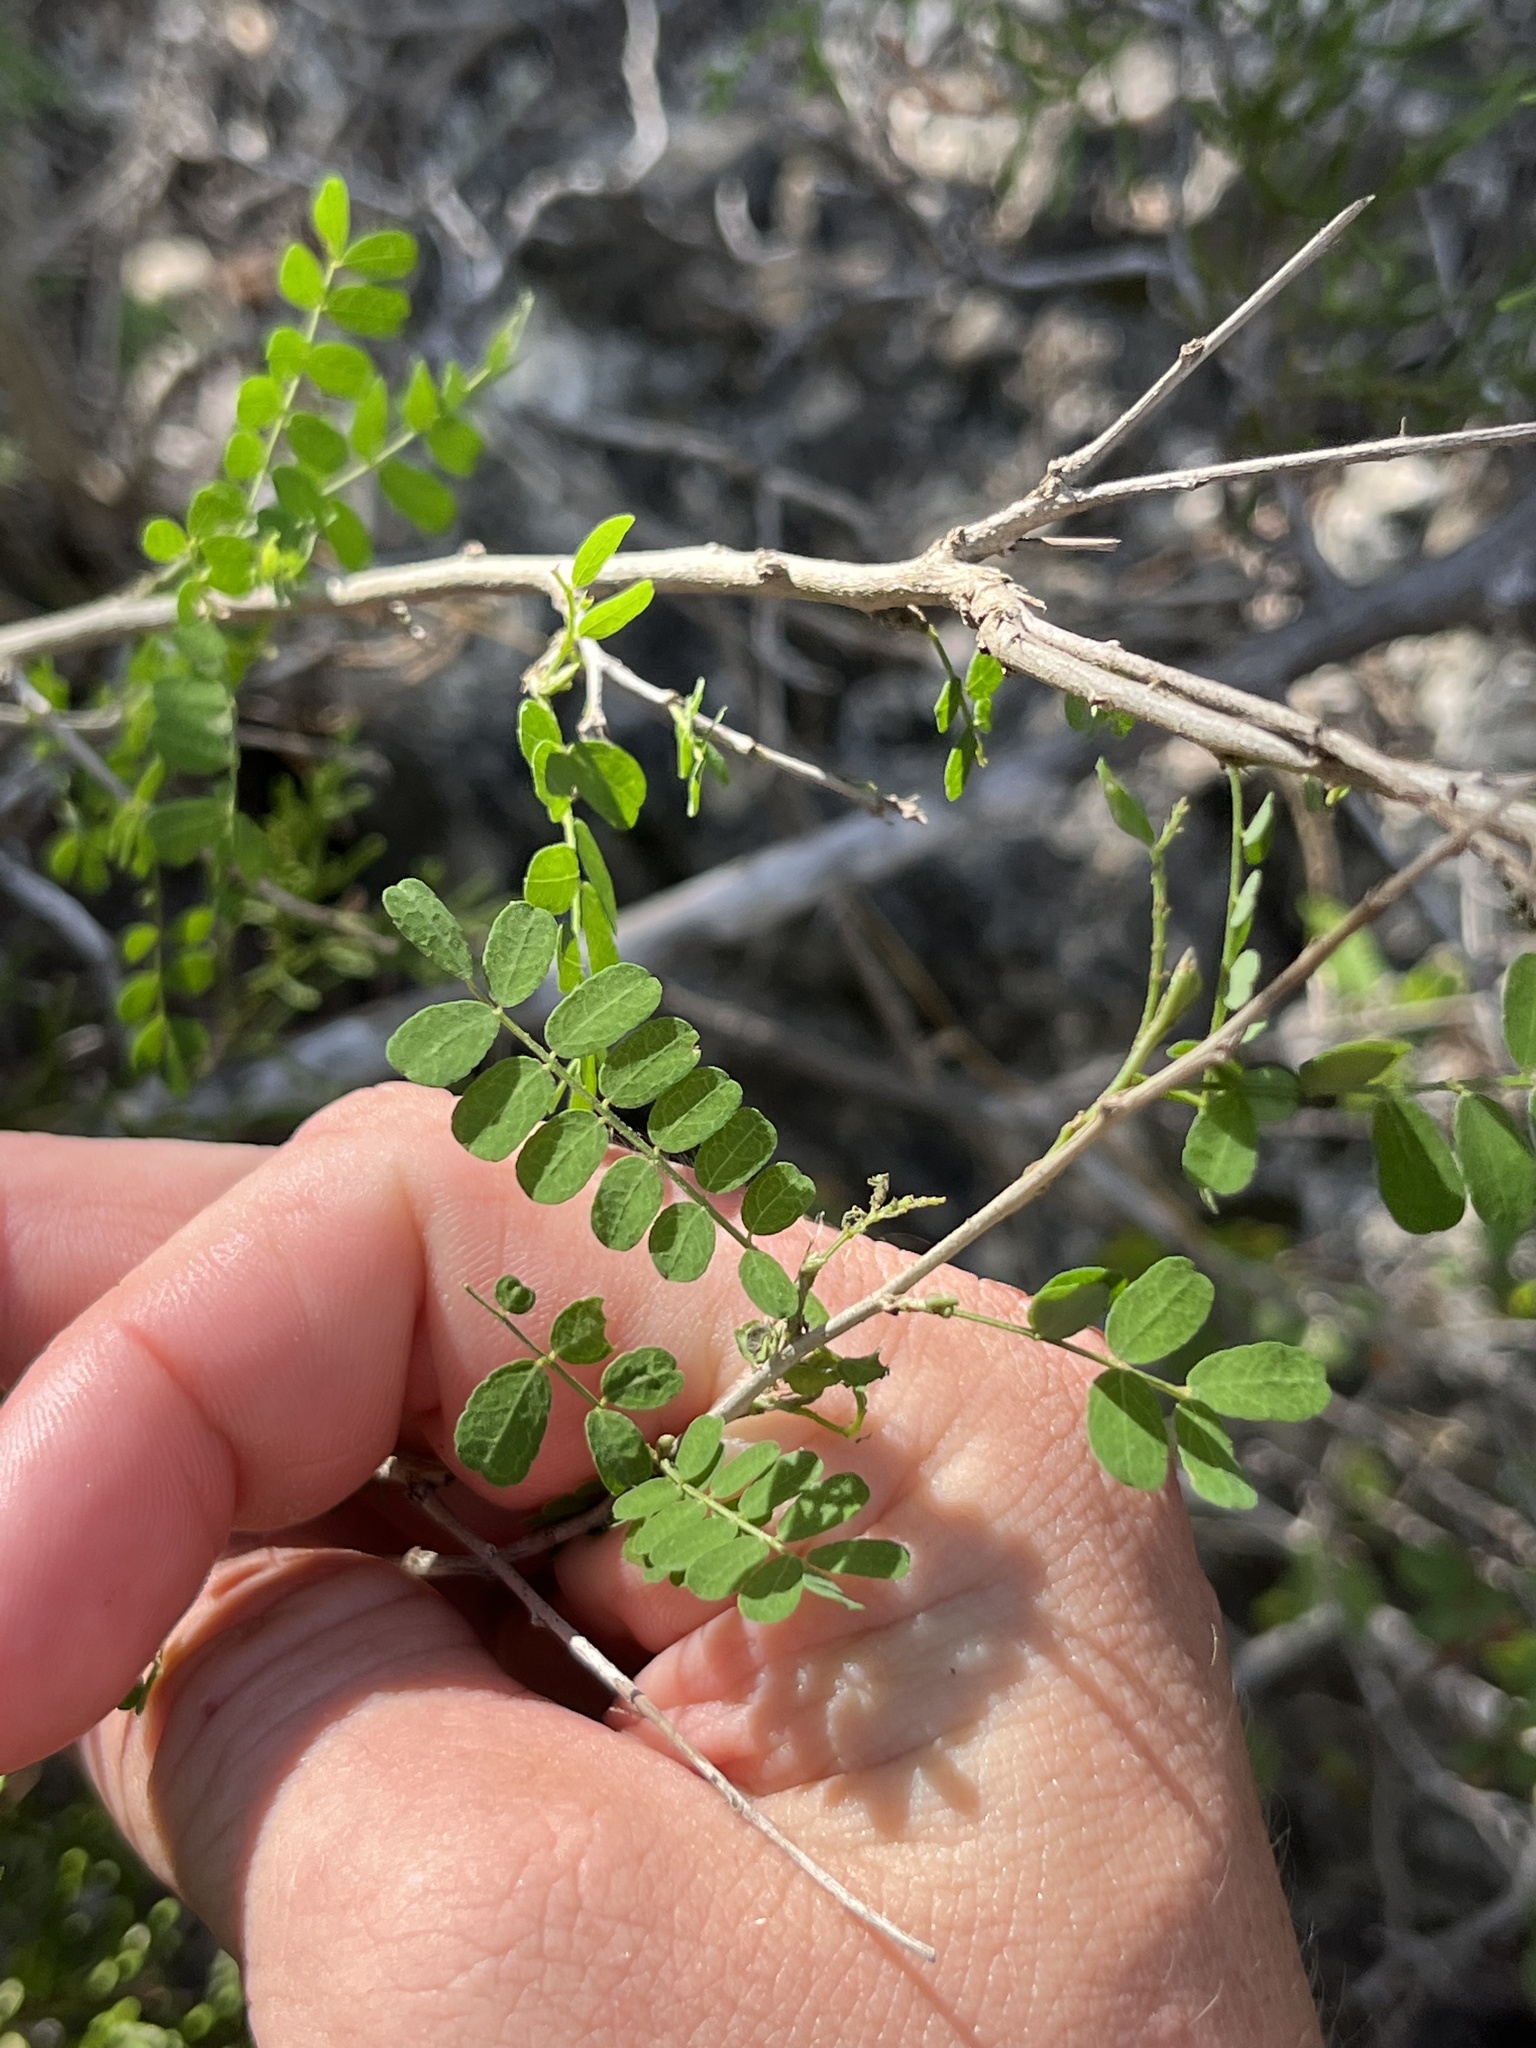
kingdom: Plantae
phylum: Tracheophyta
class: Magnoliopsida
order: Fabales
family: Fabaceae
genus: Eysenhardtia
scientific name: Eysenhardtia texana
